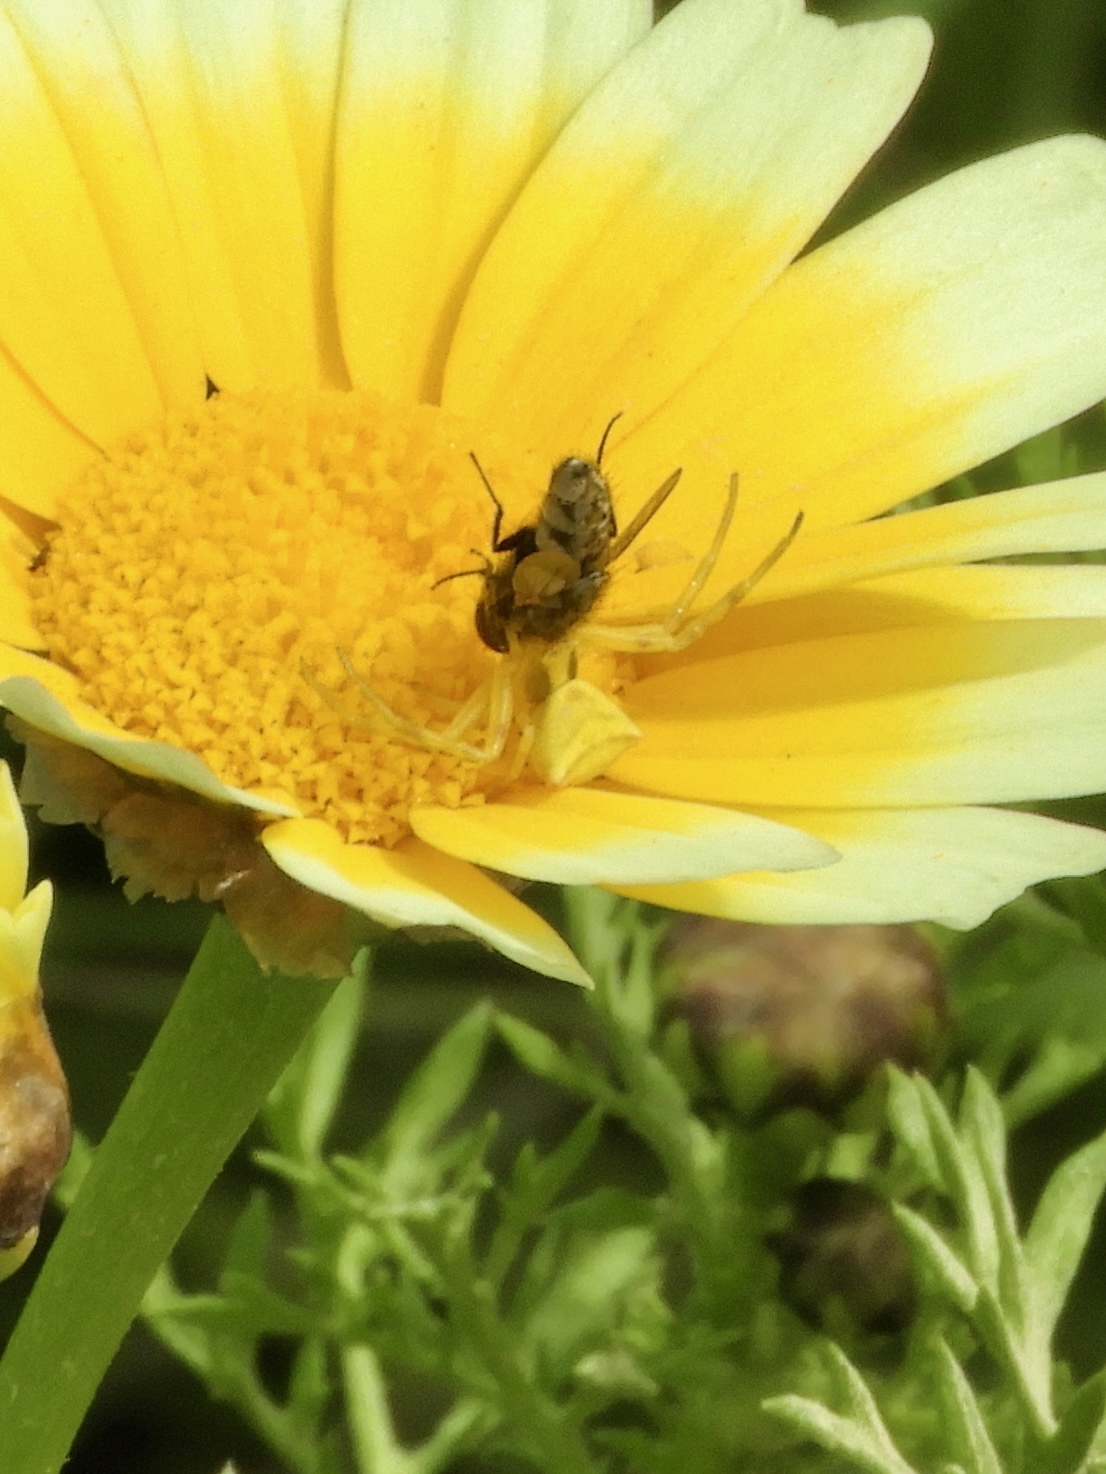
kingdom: Animalia
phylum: Arthropoda
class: Arachnida
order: Araneae
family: Thomisidae
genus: Thomisus
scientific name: Thomisus onustus
